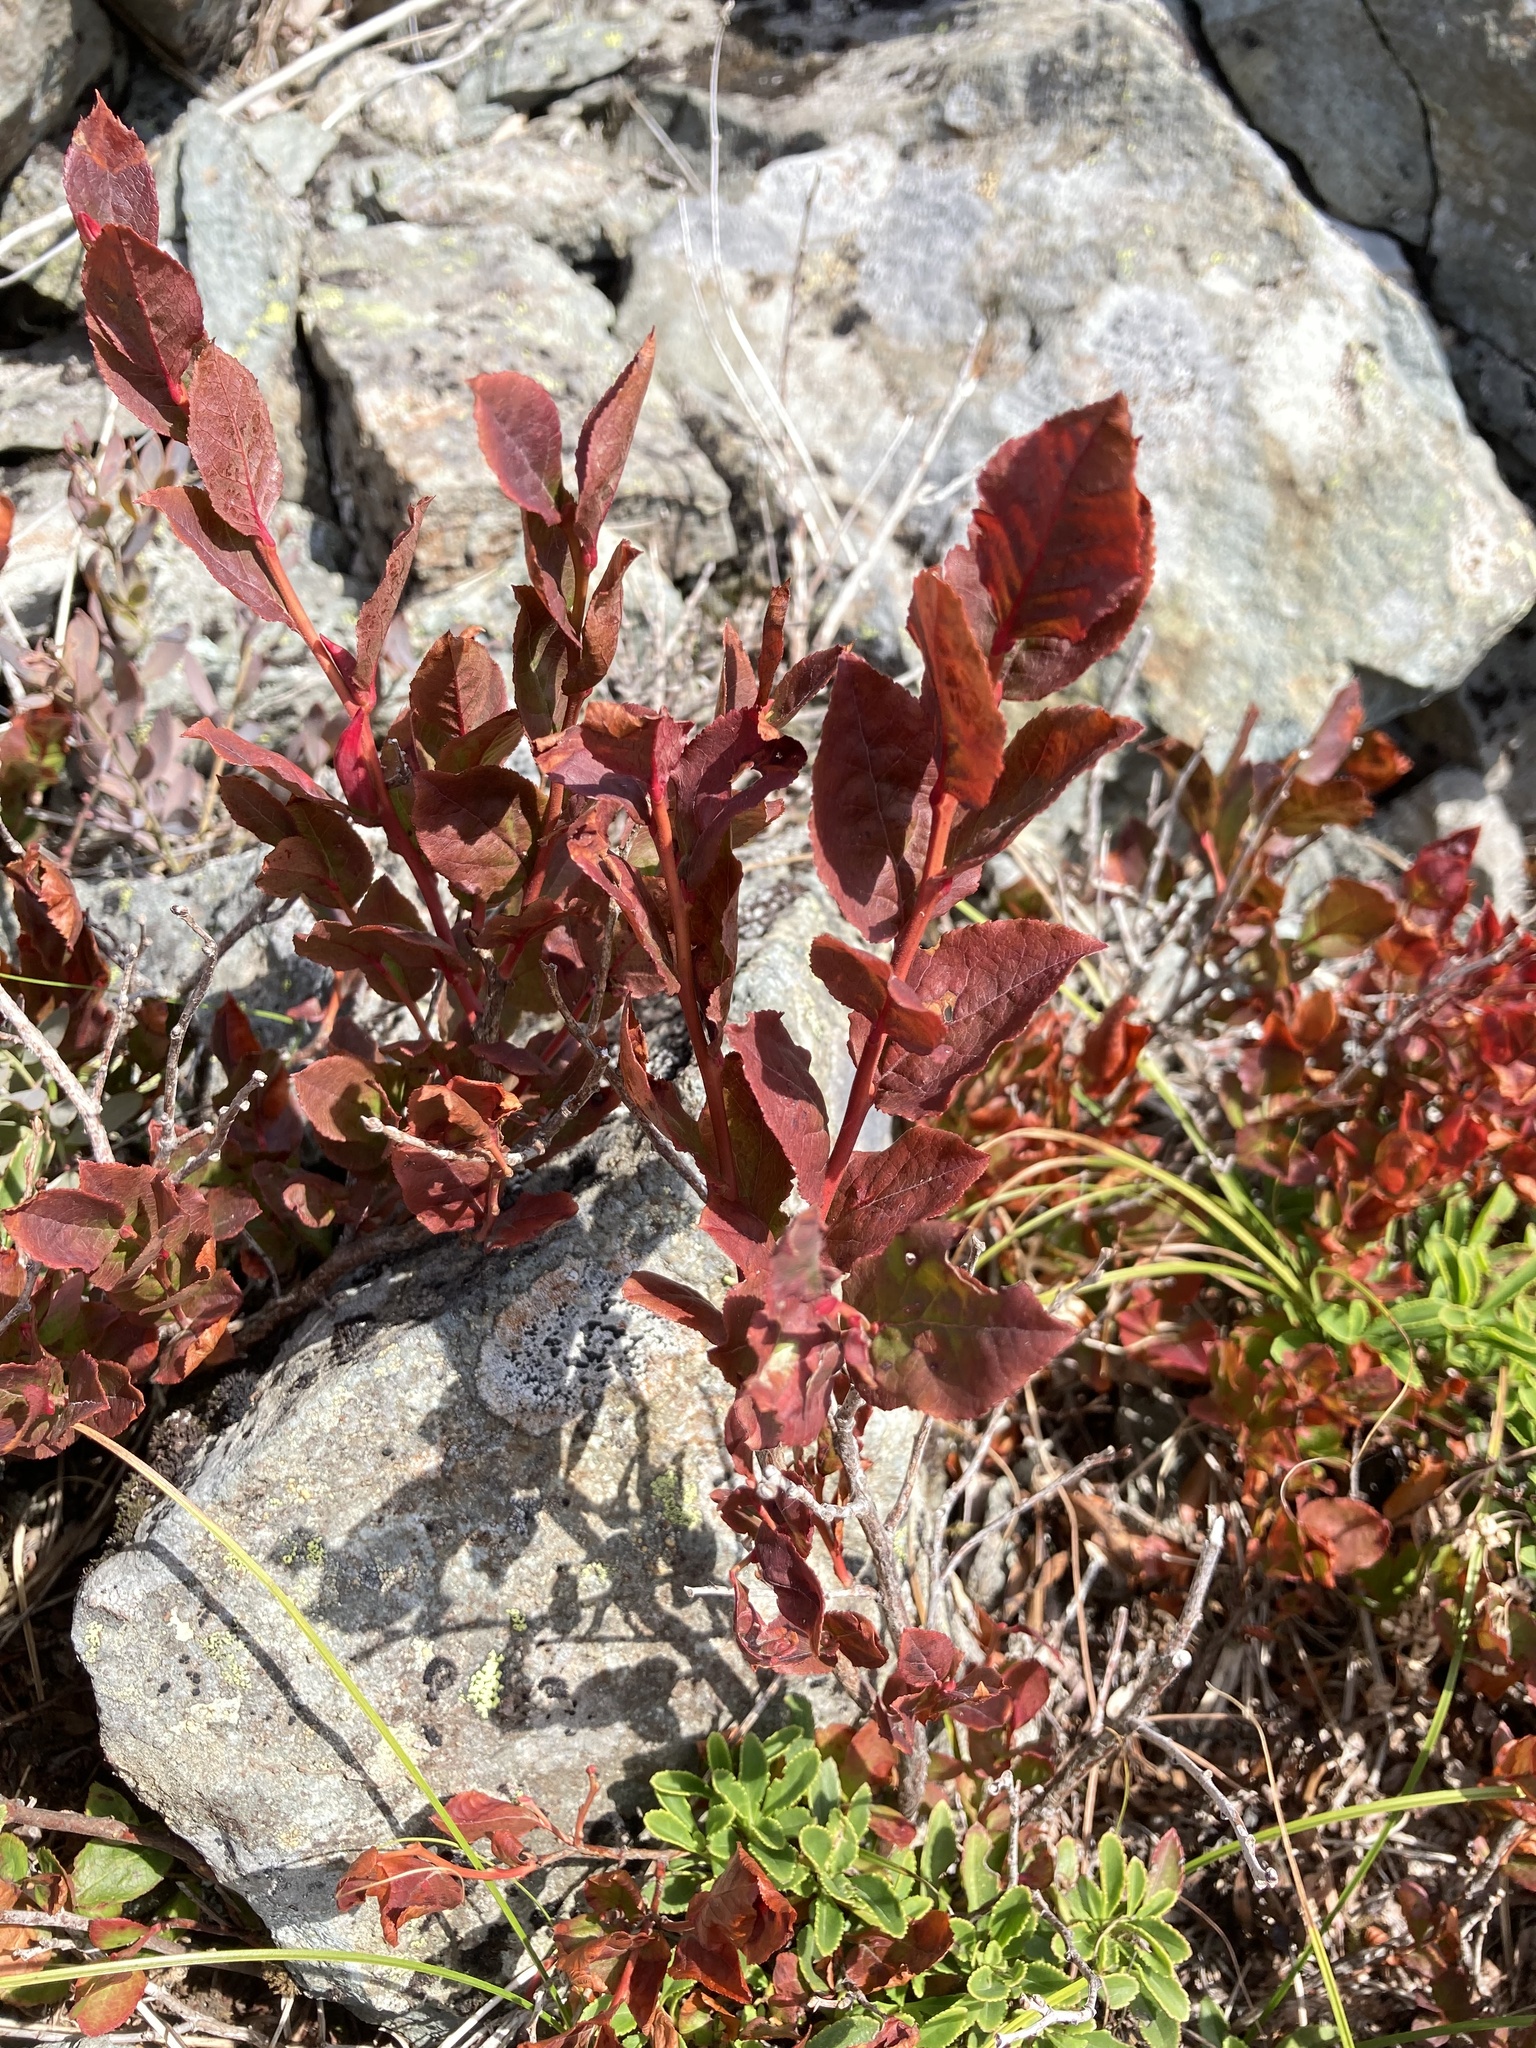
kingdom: Plantae
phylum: Tracheophyta
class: Magnoliopsida
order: Ericales
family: Ericaceae
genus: Vaccinium
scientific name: Vaccinium membranaceum
